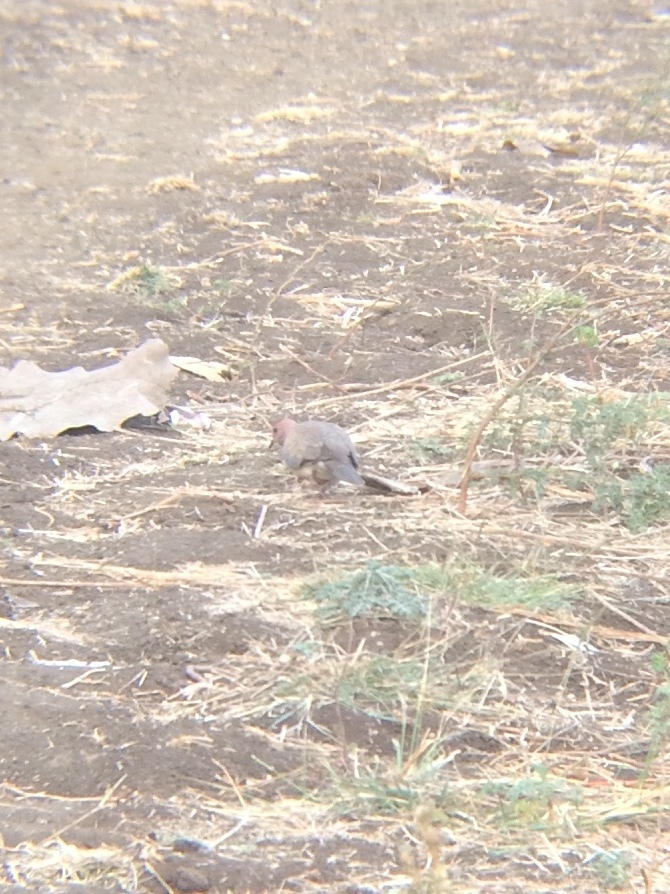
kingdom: Animalia
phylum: Chordata
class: Aves
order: Columbiformes
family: Columbidae
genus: Spilopelia
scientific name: Spilopelia senegalensis
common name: Laughing dove
